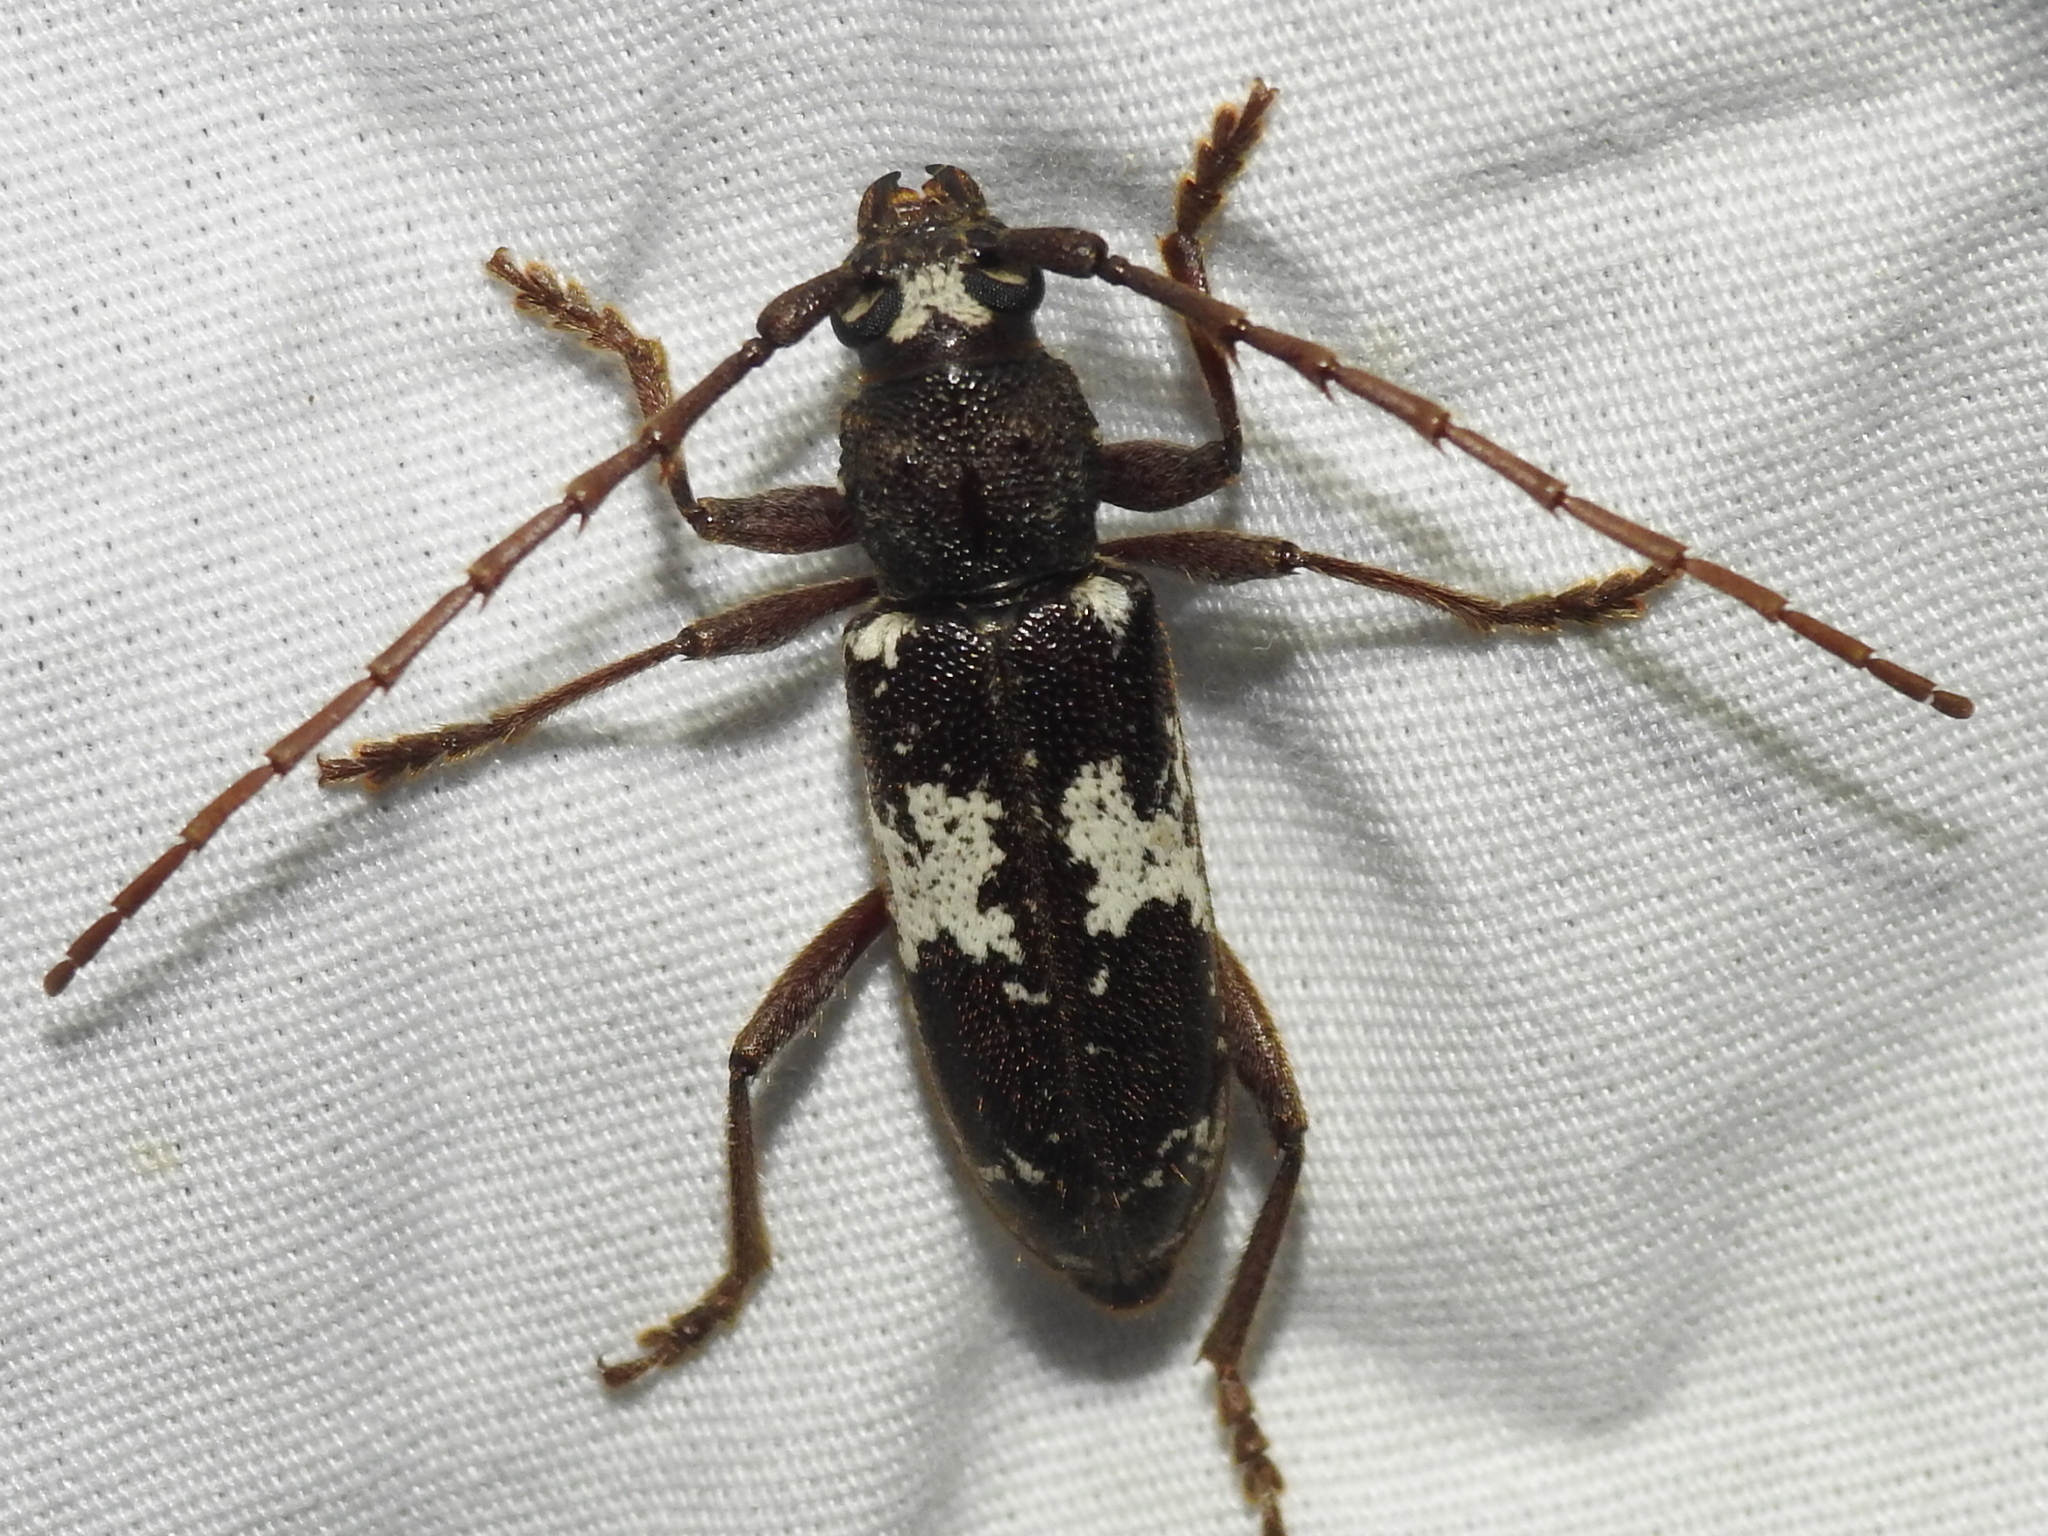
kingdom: Animalia
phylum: Arthropoda
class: Insecta
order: Coleoptera
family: Cerambycidae
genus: Enaphalodes
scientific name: Enaphalodes taeniatus
